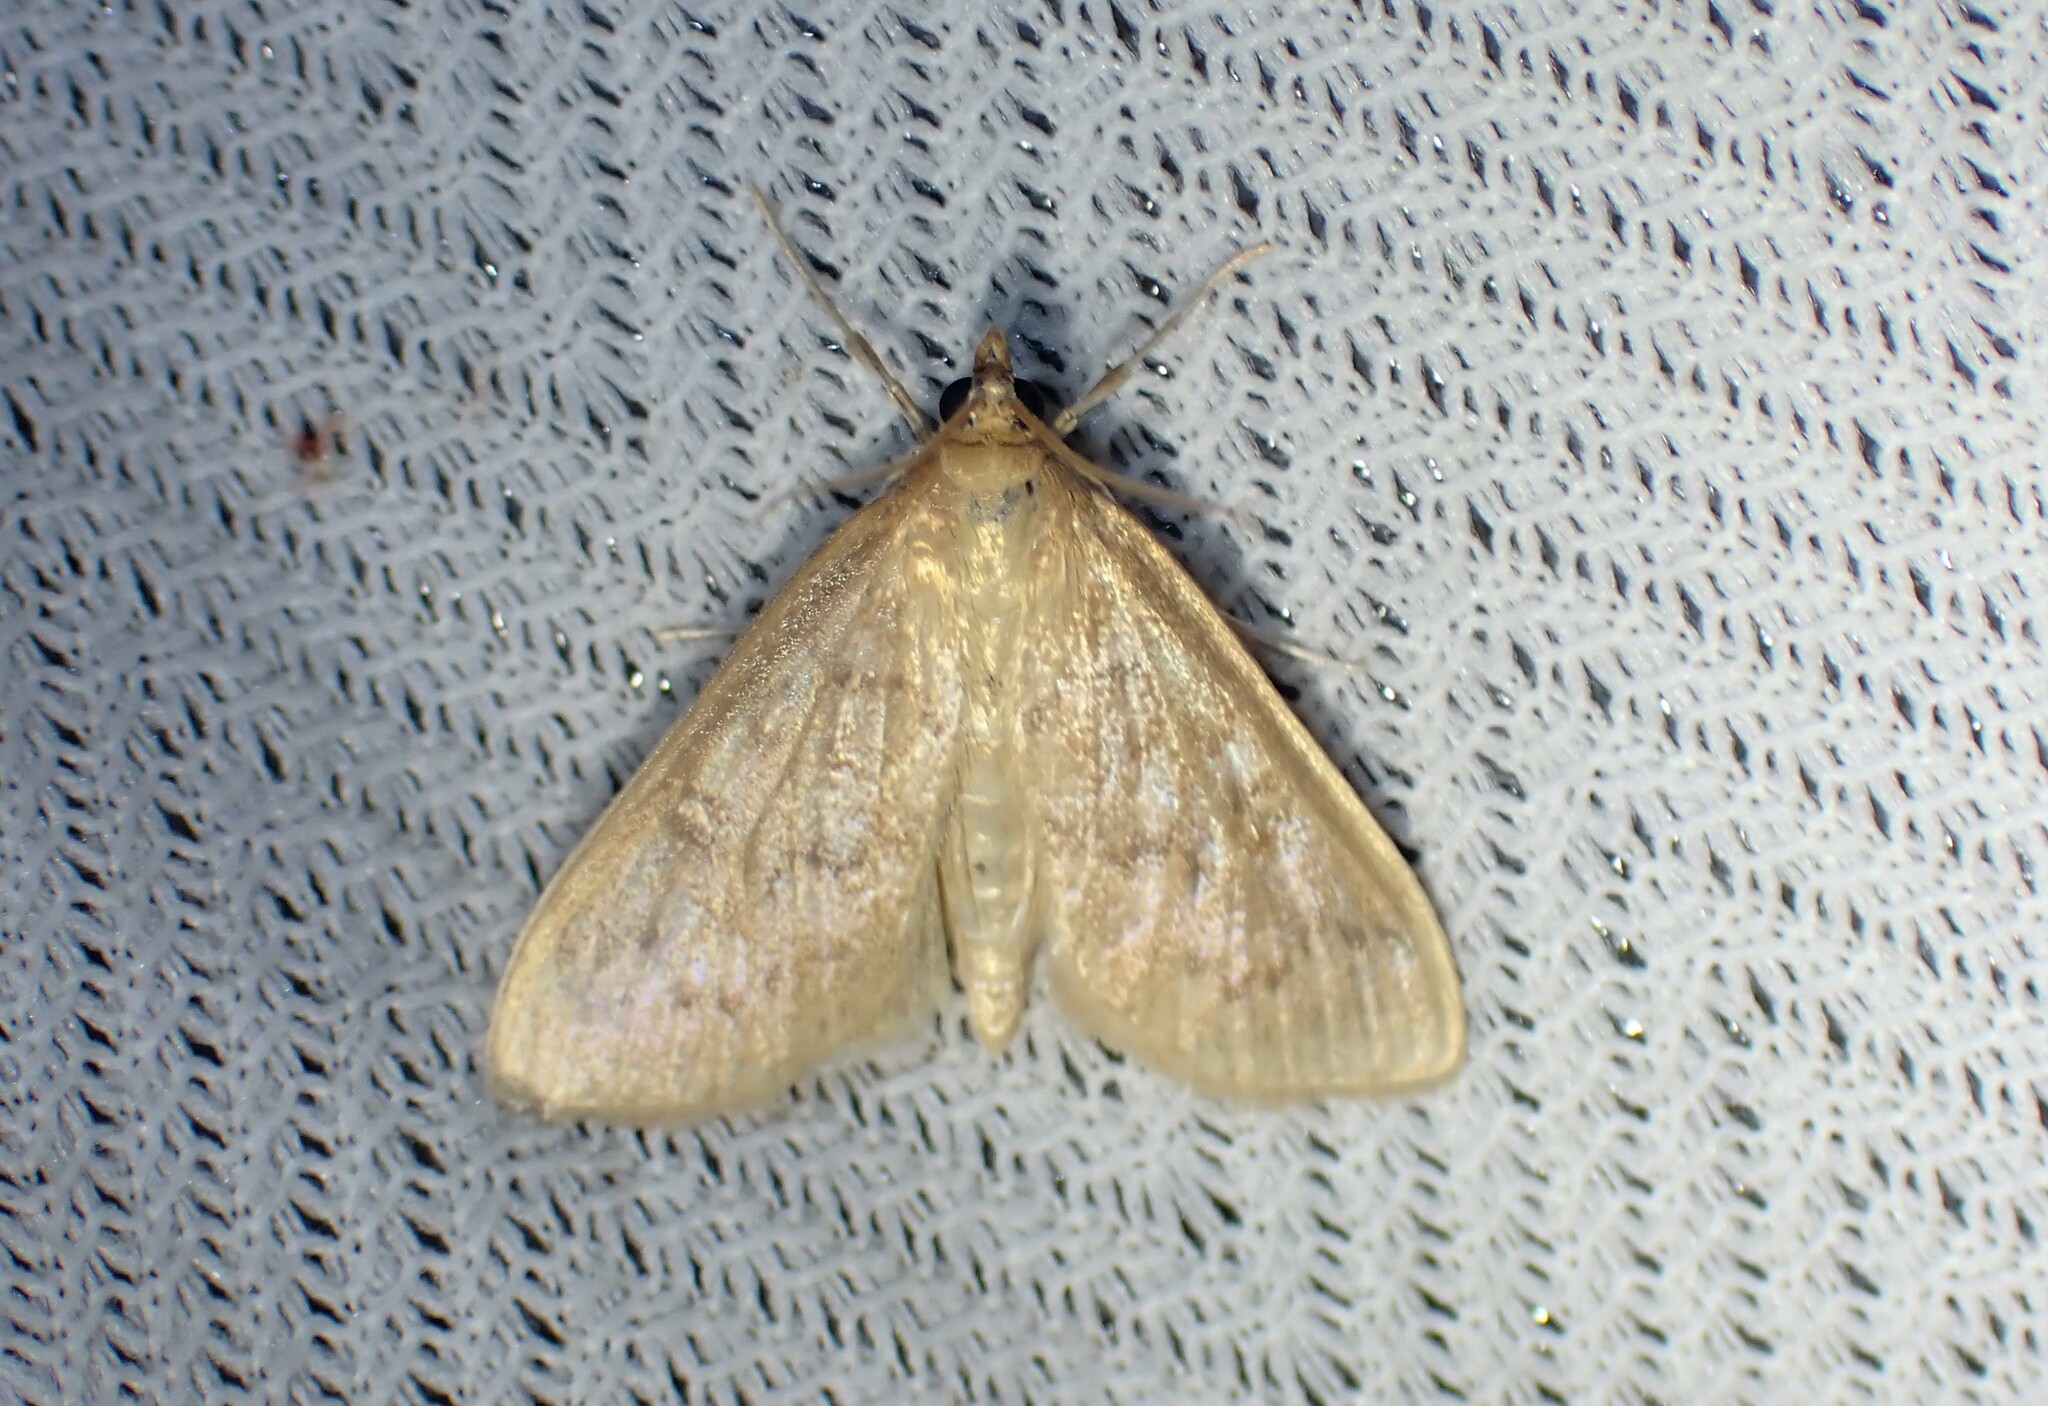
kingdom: Animalia
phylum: Arthropoda
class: Insecta
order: Lepidoptera
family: Crambidae
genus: Anania
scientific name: Anania Framinghamia helvalis
